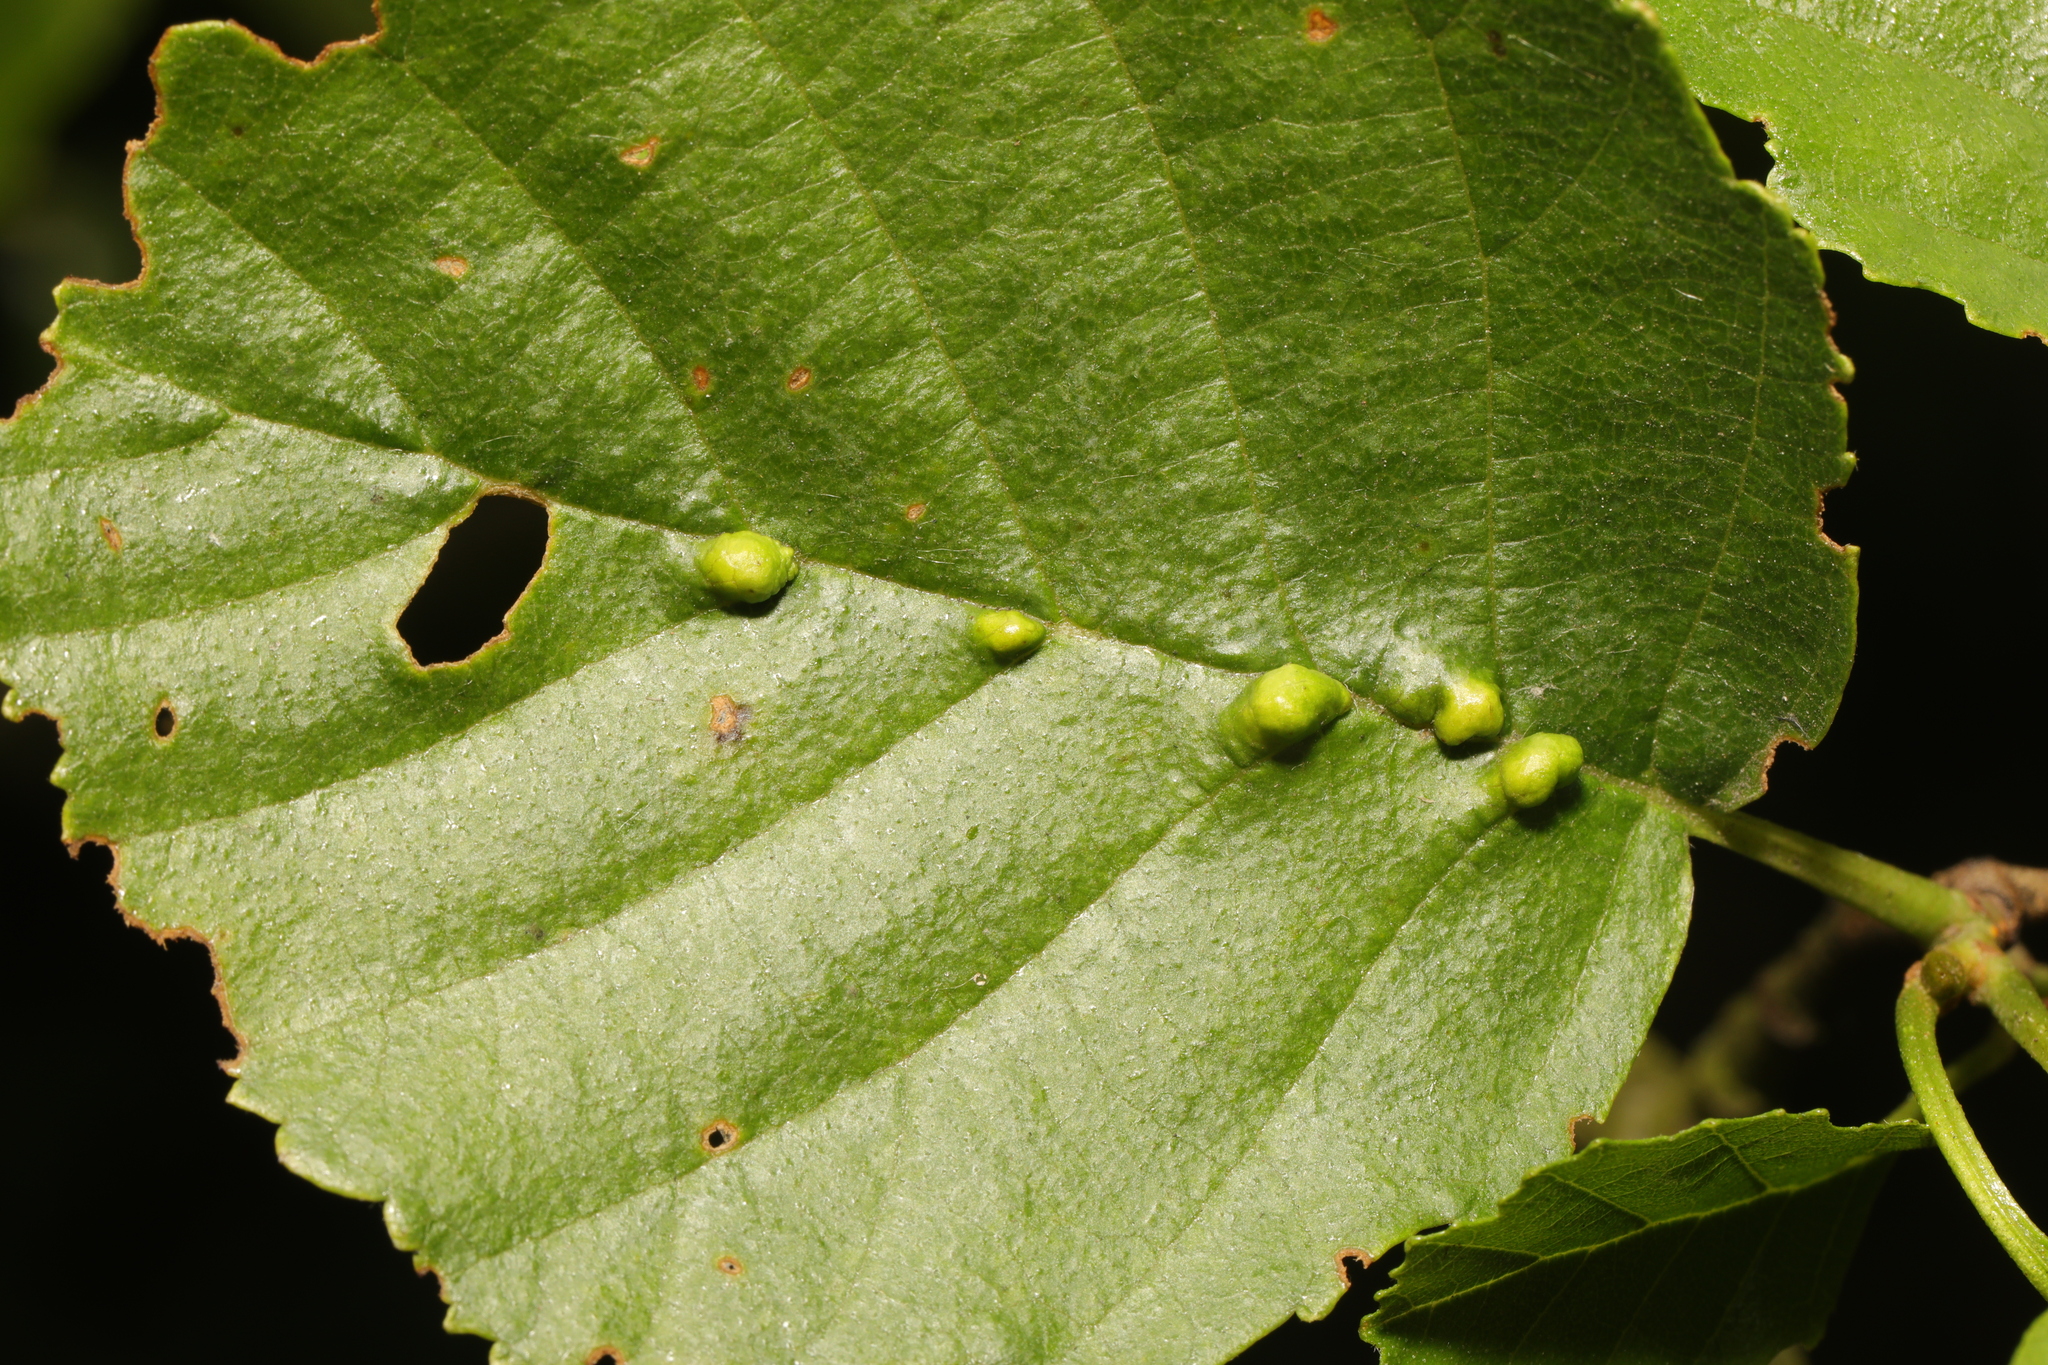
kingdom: Animalia
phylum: Arthropoda
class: Arachnida
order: Trombidiformes
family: Eriophyidae
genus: Eriophyes
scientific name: Eriophyes inangulis
